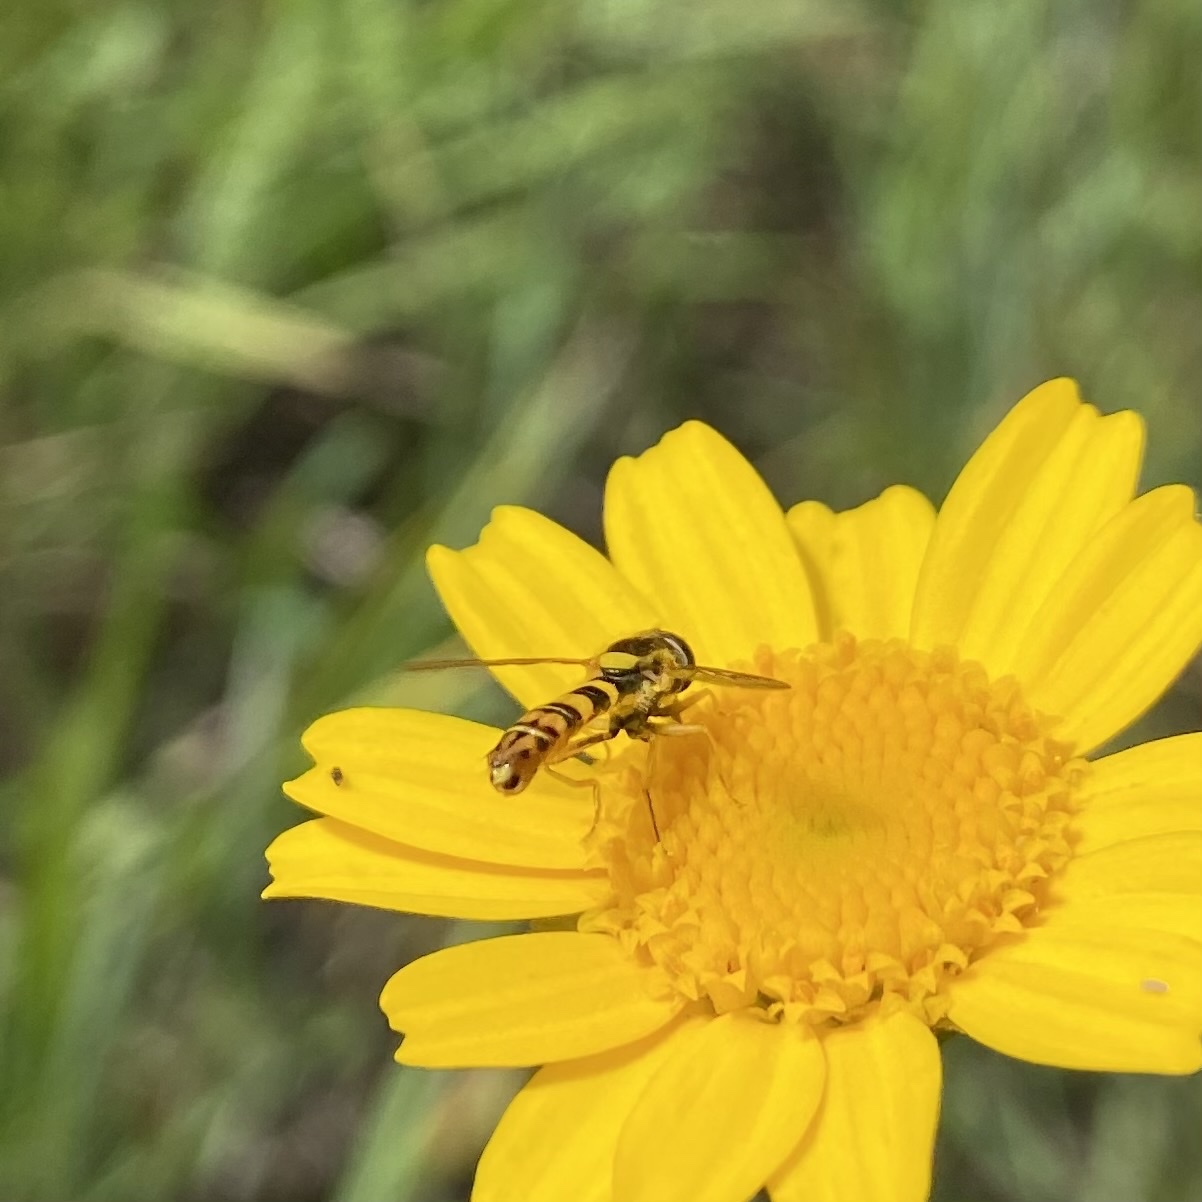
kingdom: Animalia
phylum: Arthropoda
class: Insecta
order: Diptera
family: Syrphidae
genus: Sphaerophoria
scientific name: Sphaerophoria
